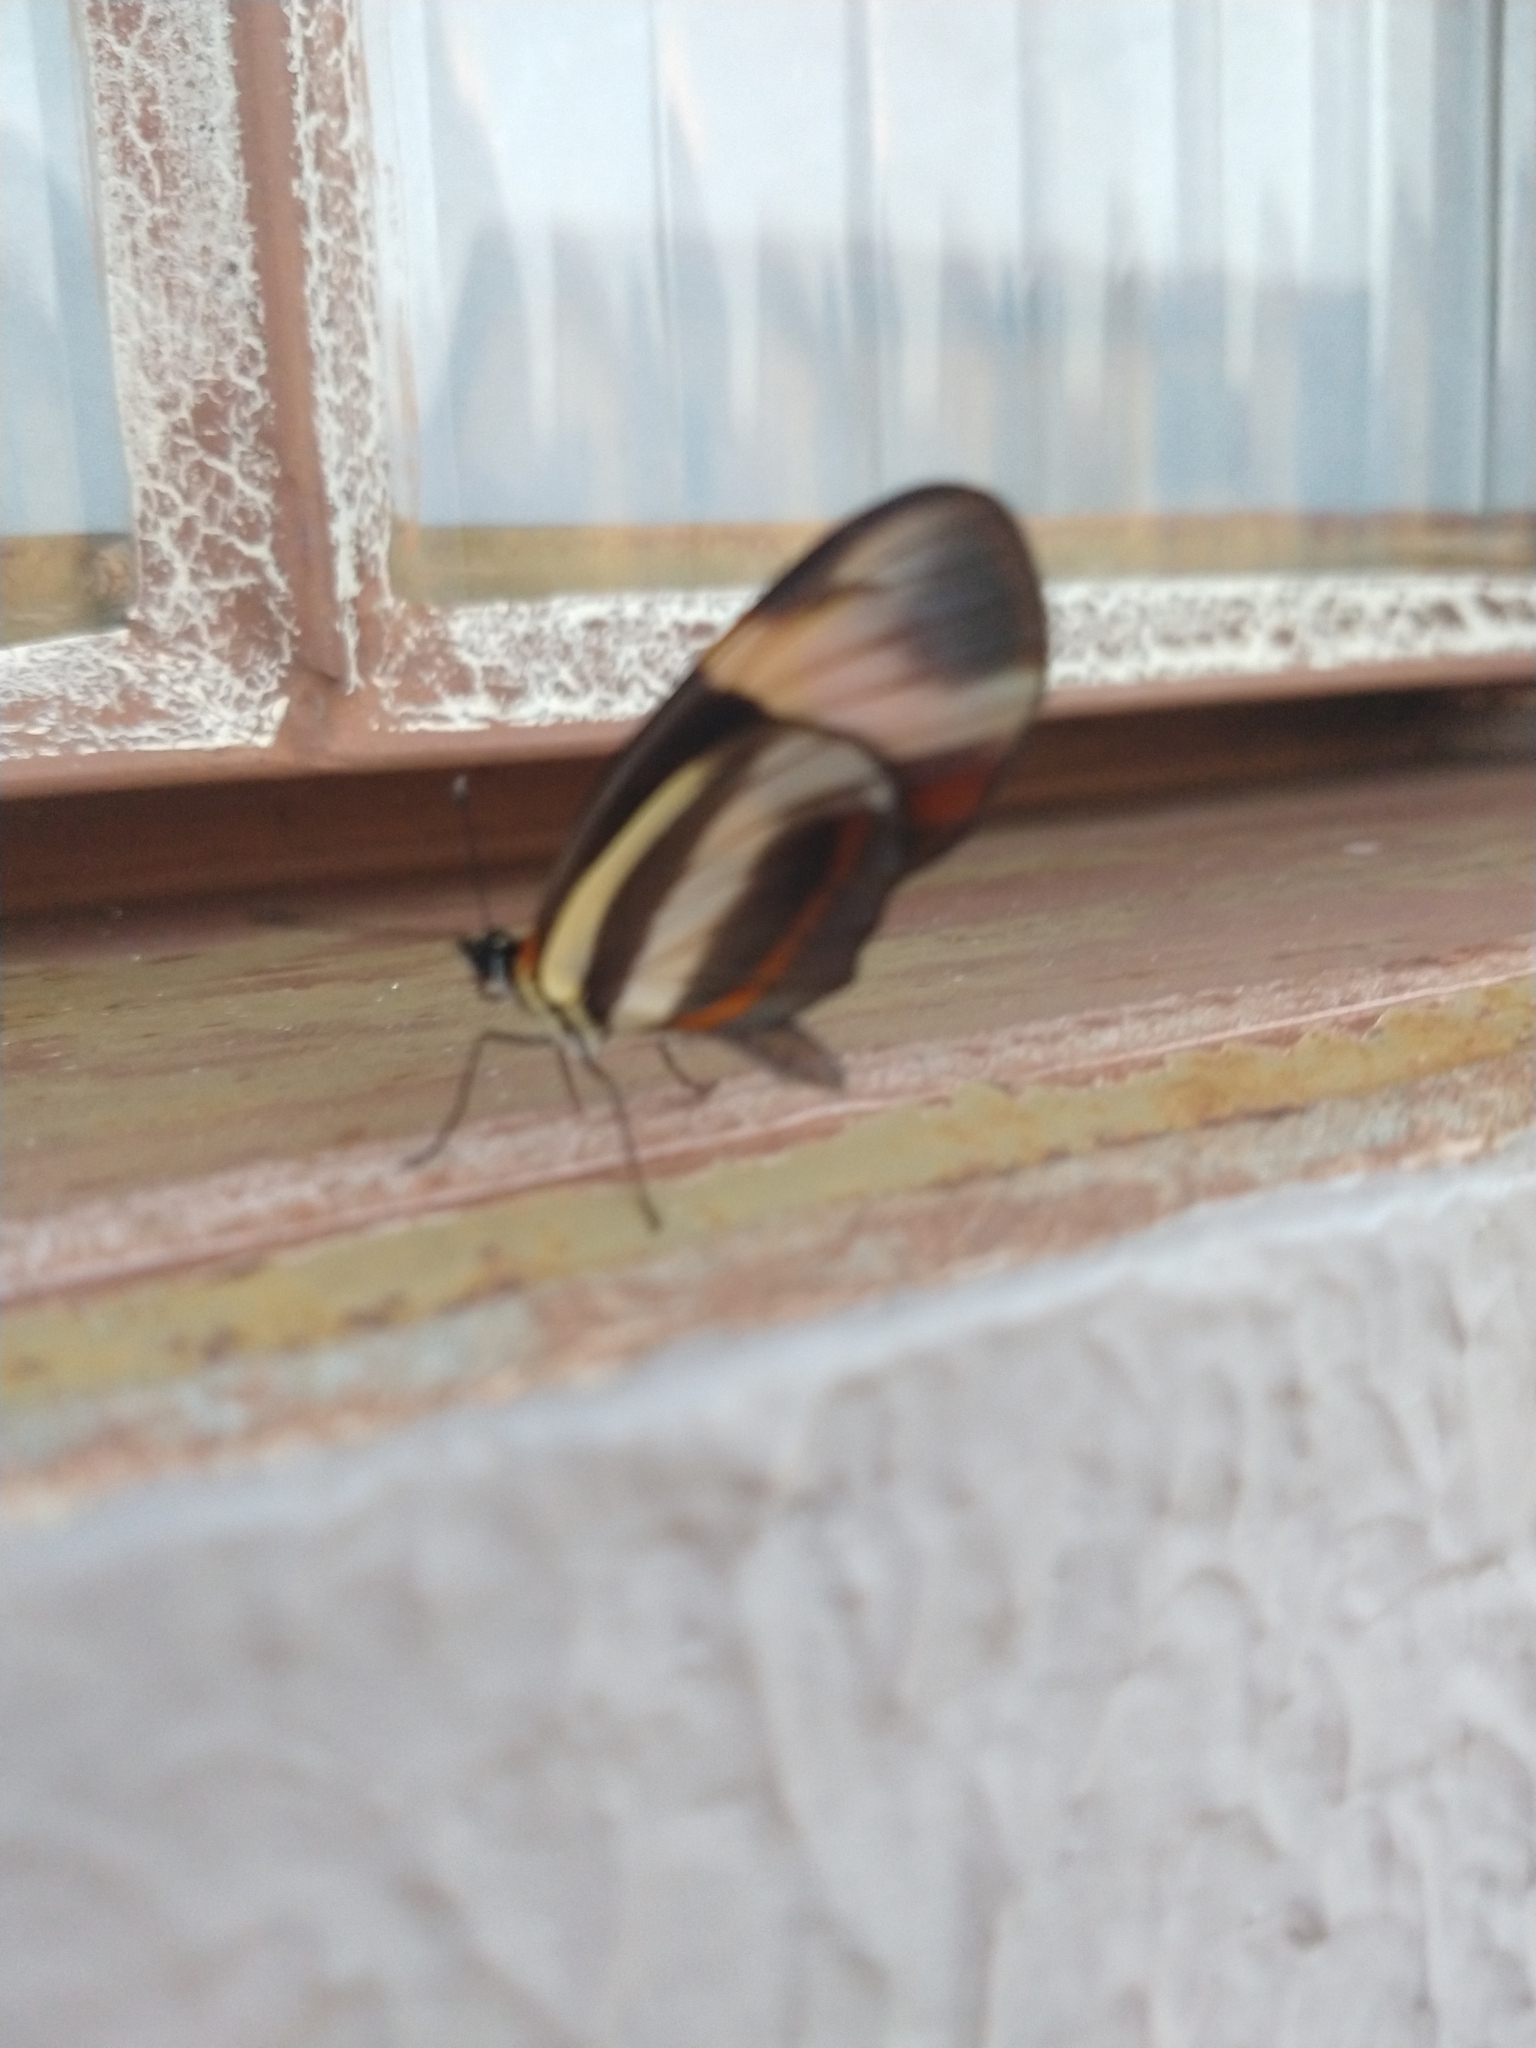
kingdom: Animalia
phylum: Arthropoda
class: Insecta
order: Lepidoptera
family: Nymphalidae
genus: Eresia
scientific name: Eresia lansdorfi
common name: Lansdorf's crescent
